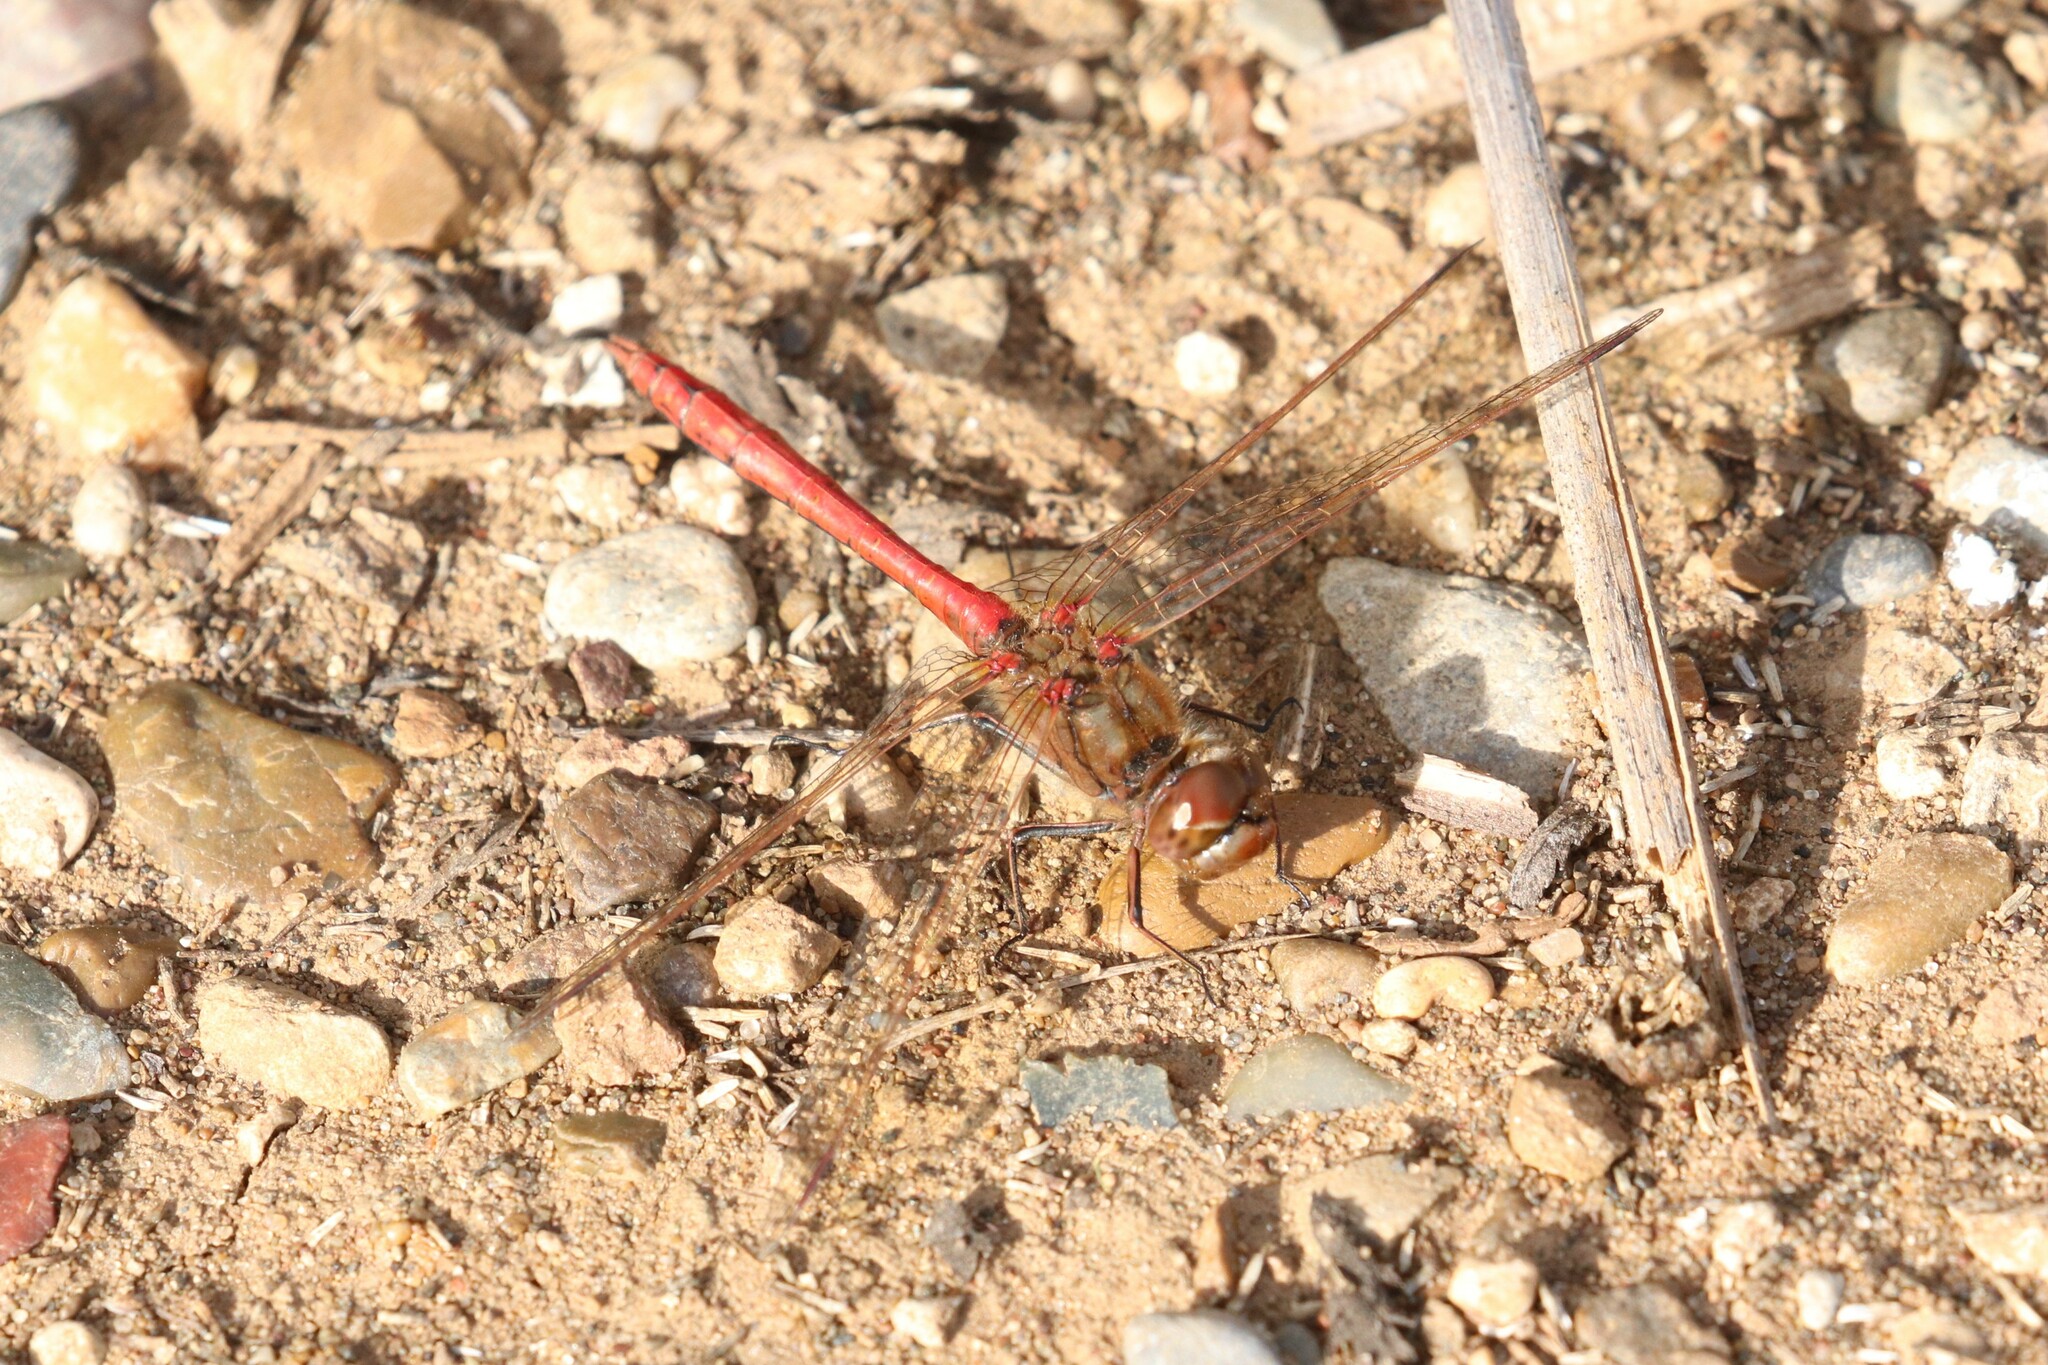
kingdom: Animalia
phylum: Arthropoda
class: Insecta
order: Odonata
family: Libellulidae
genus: Sympetrum
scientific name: Sympetrum vulgatum
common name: Vagrant darter
